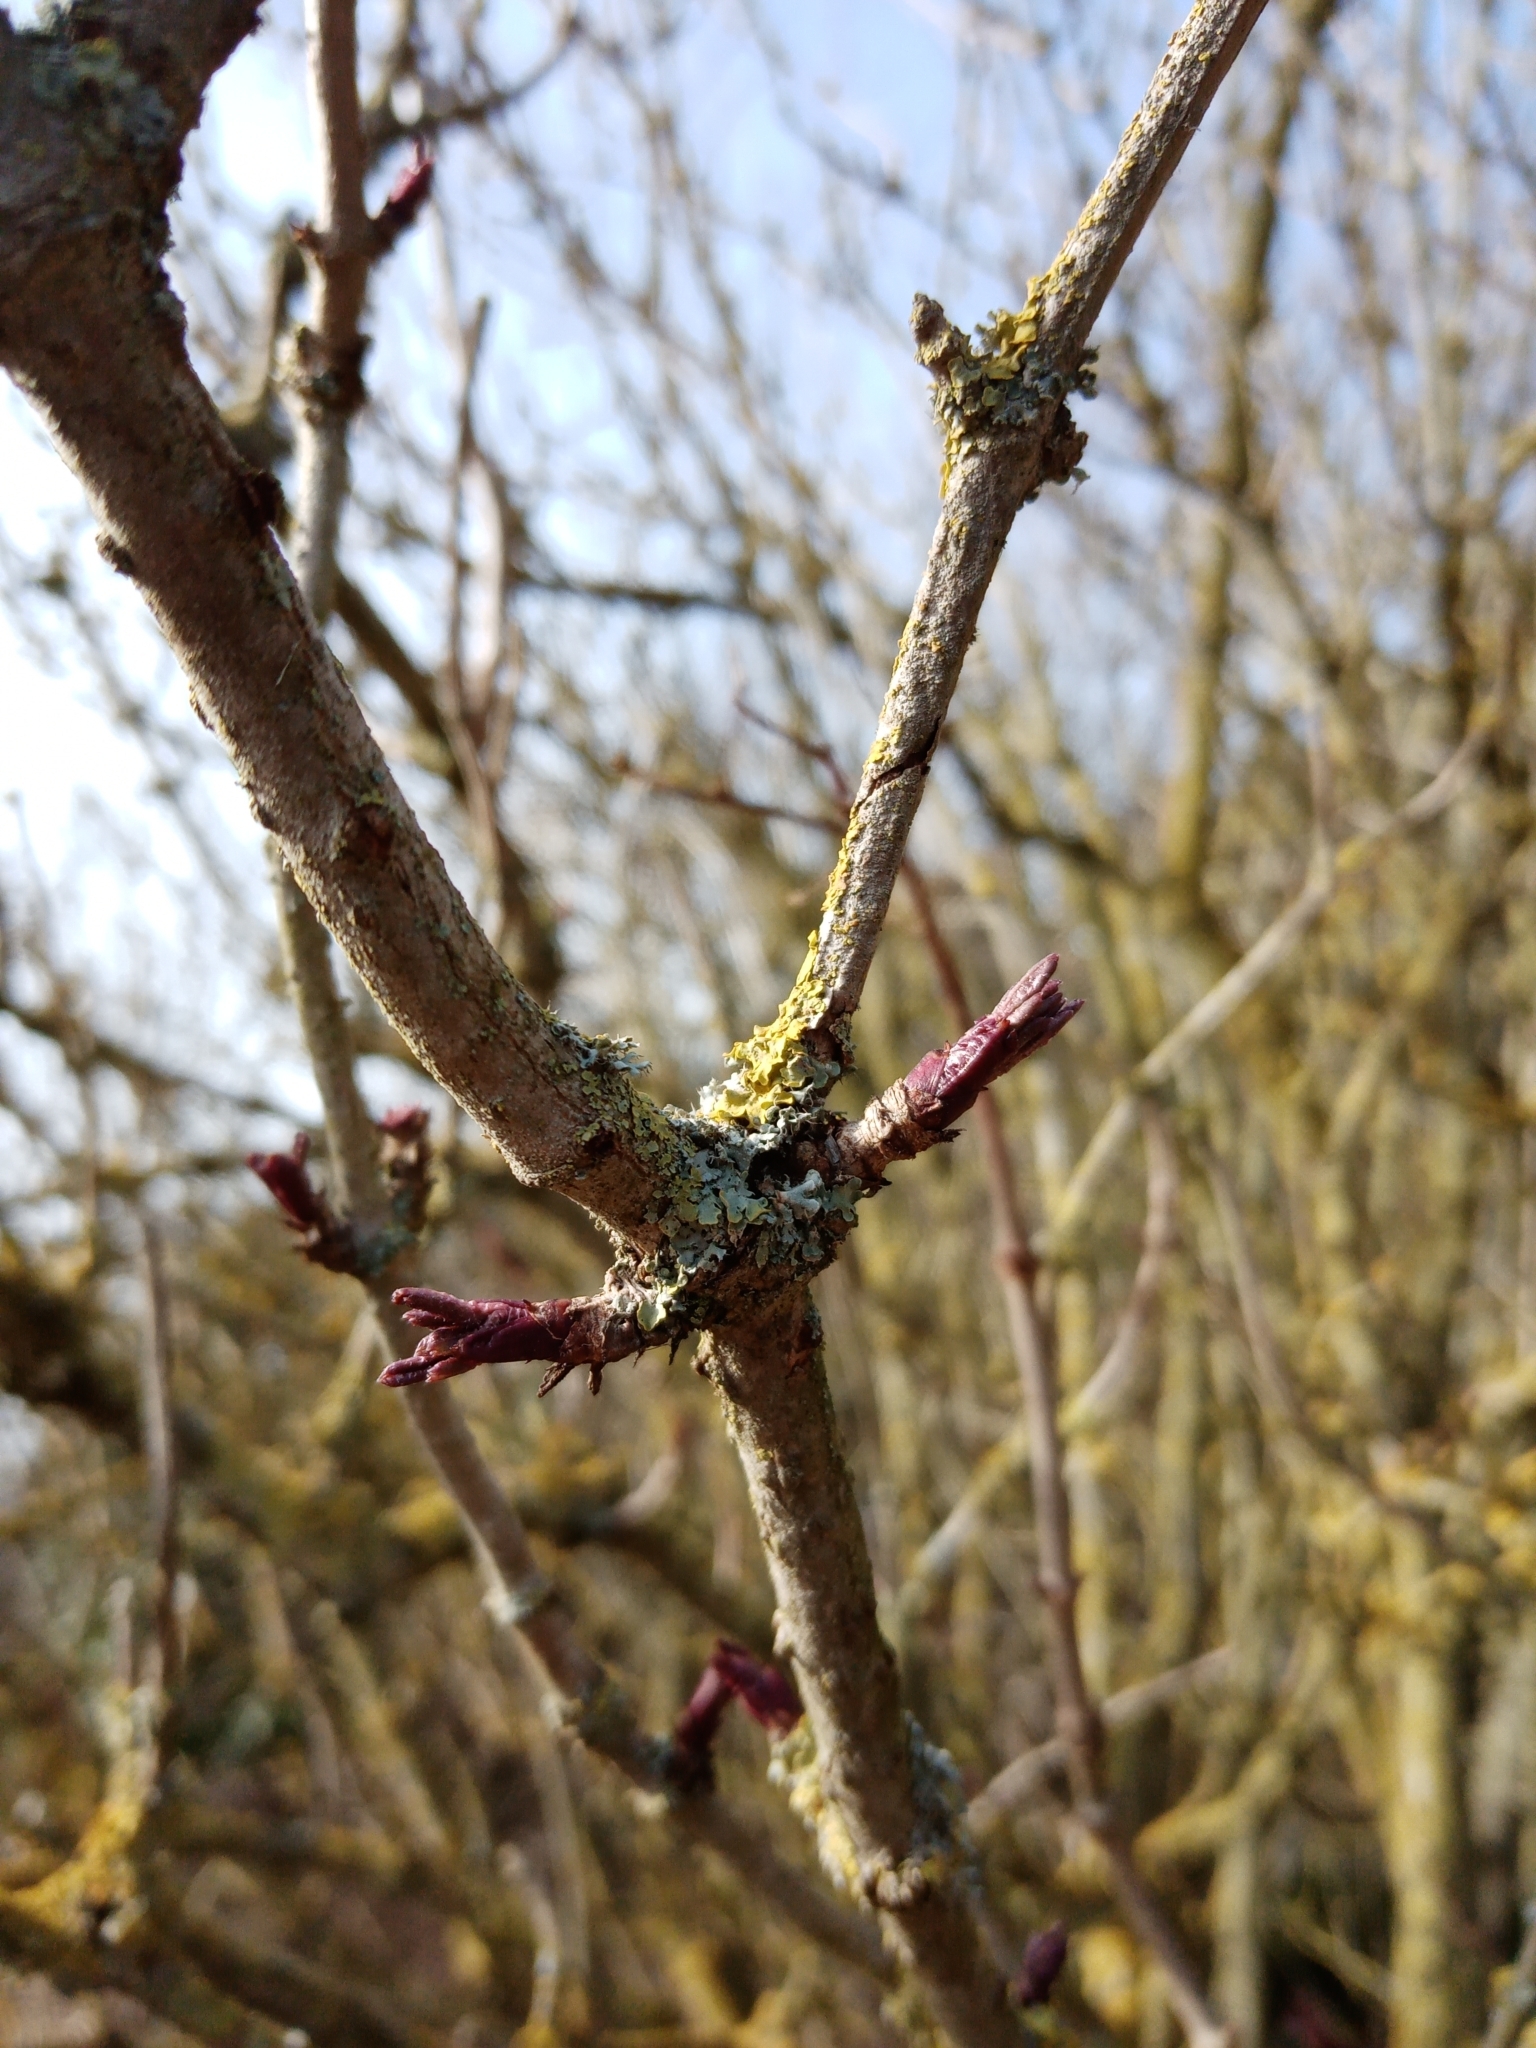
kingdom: Plantae
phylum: Tracheophyta
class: Magnoliopsida
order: Dipsacales
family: Viburnaceae
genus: Sambucus
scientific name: Sambucus nigra
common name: Elder
